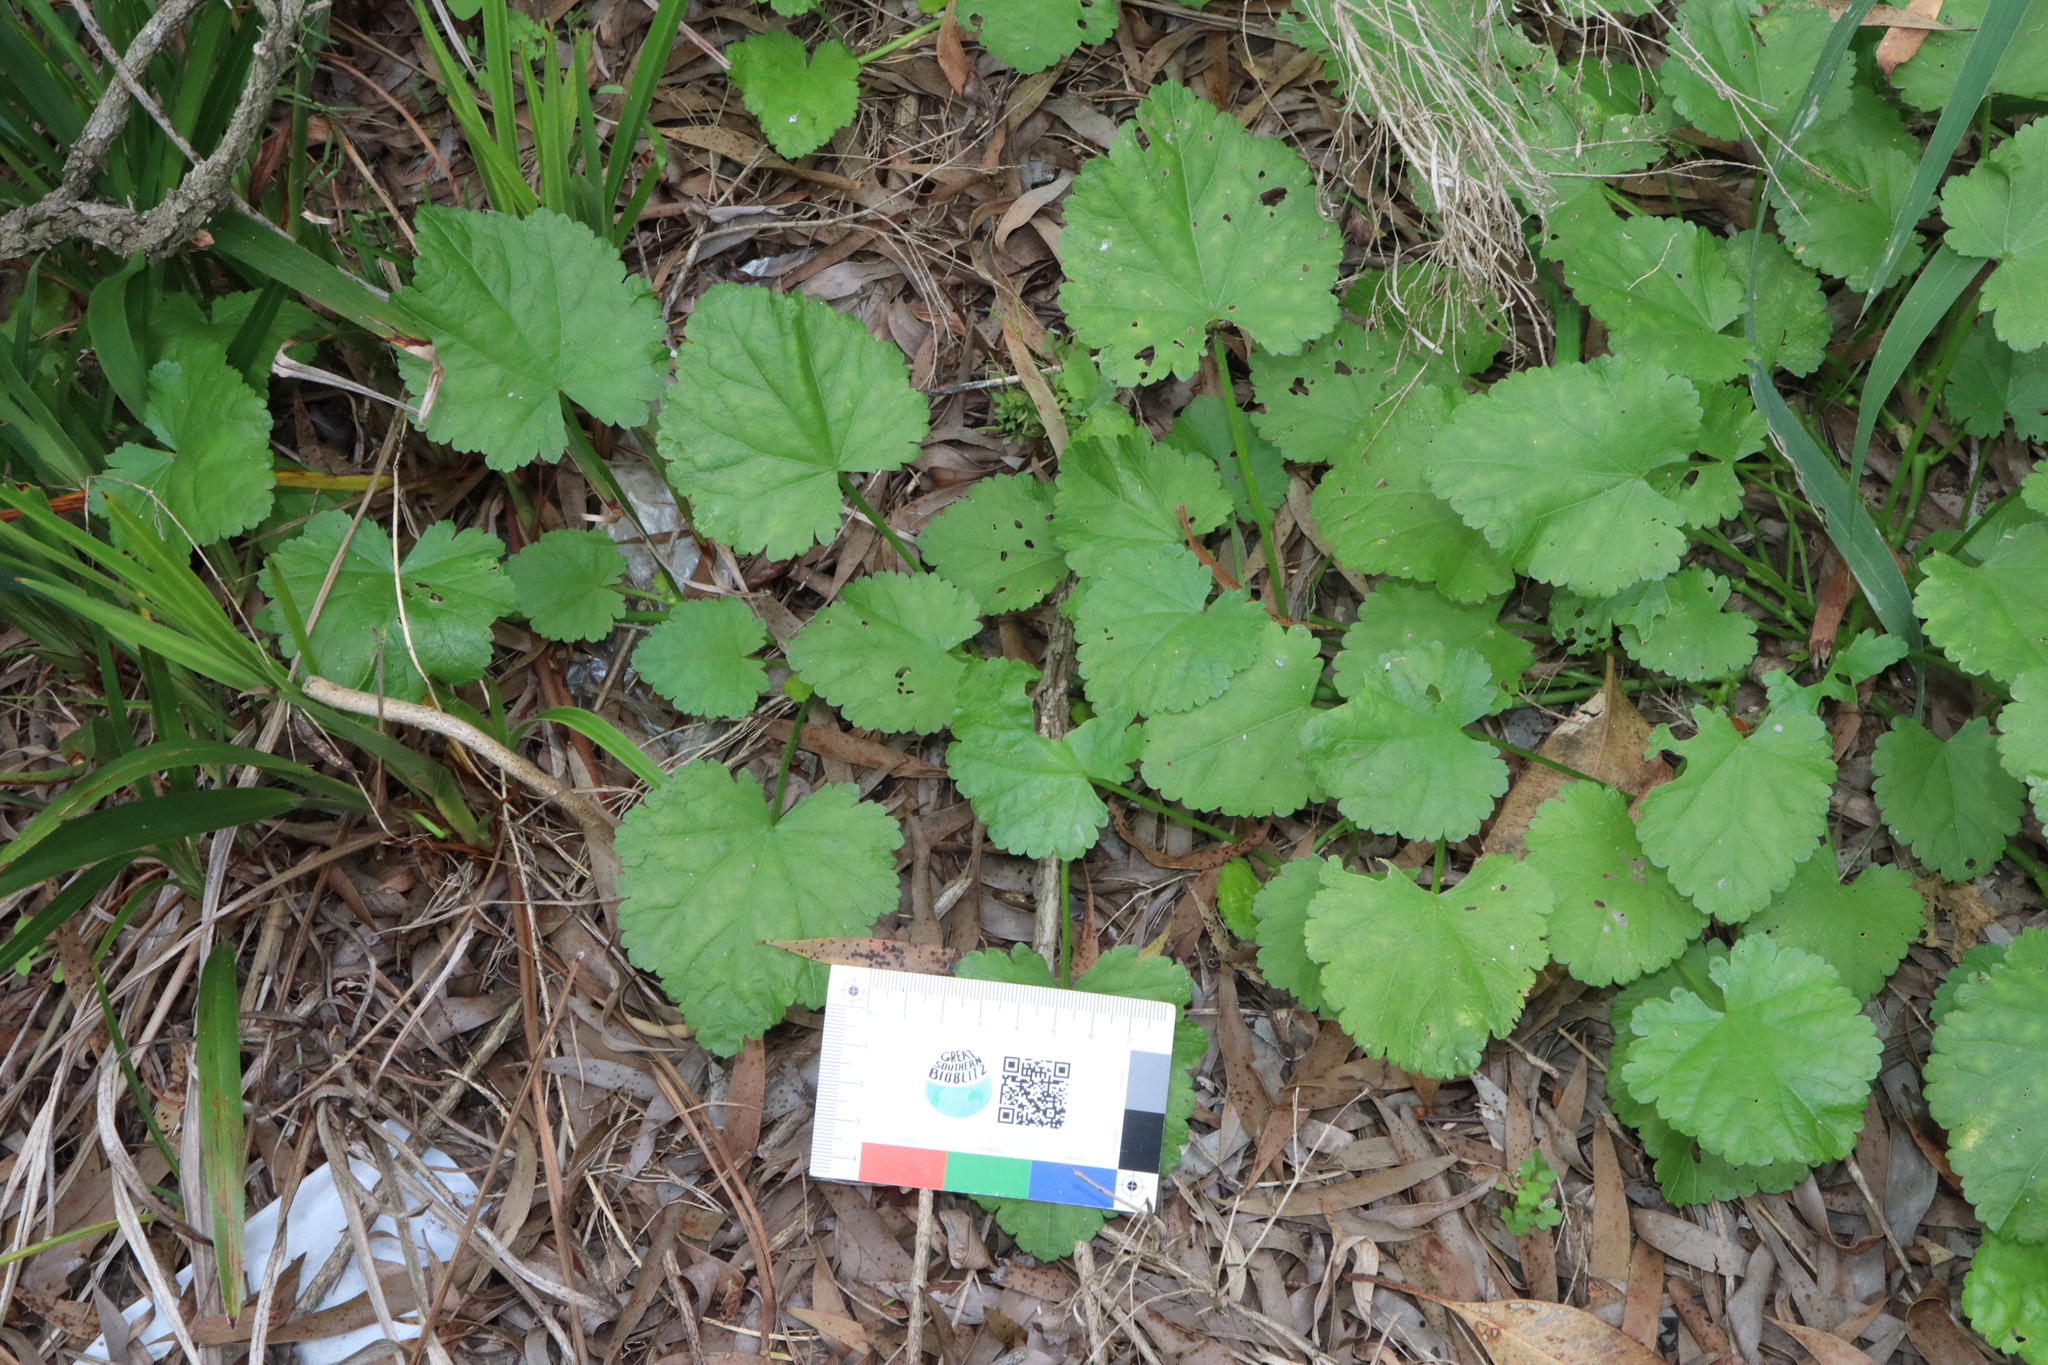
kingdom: Plantae
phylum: Tracheophyta
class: Magnoliopsida
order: Malvales
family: Malvaceae
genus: Modiola
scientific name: Modiola caroliniana
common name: Carolina bristlemallow
